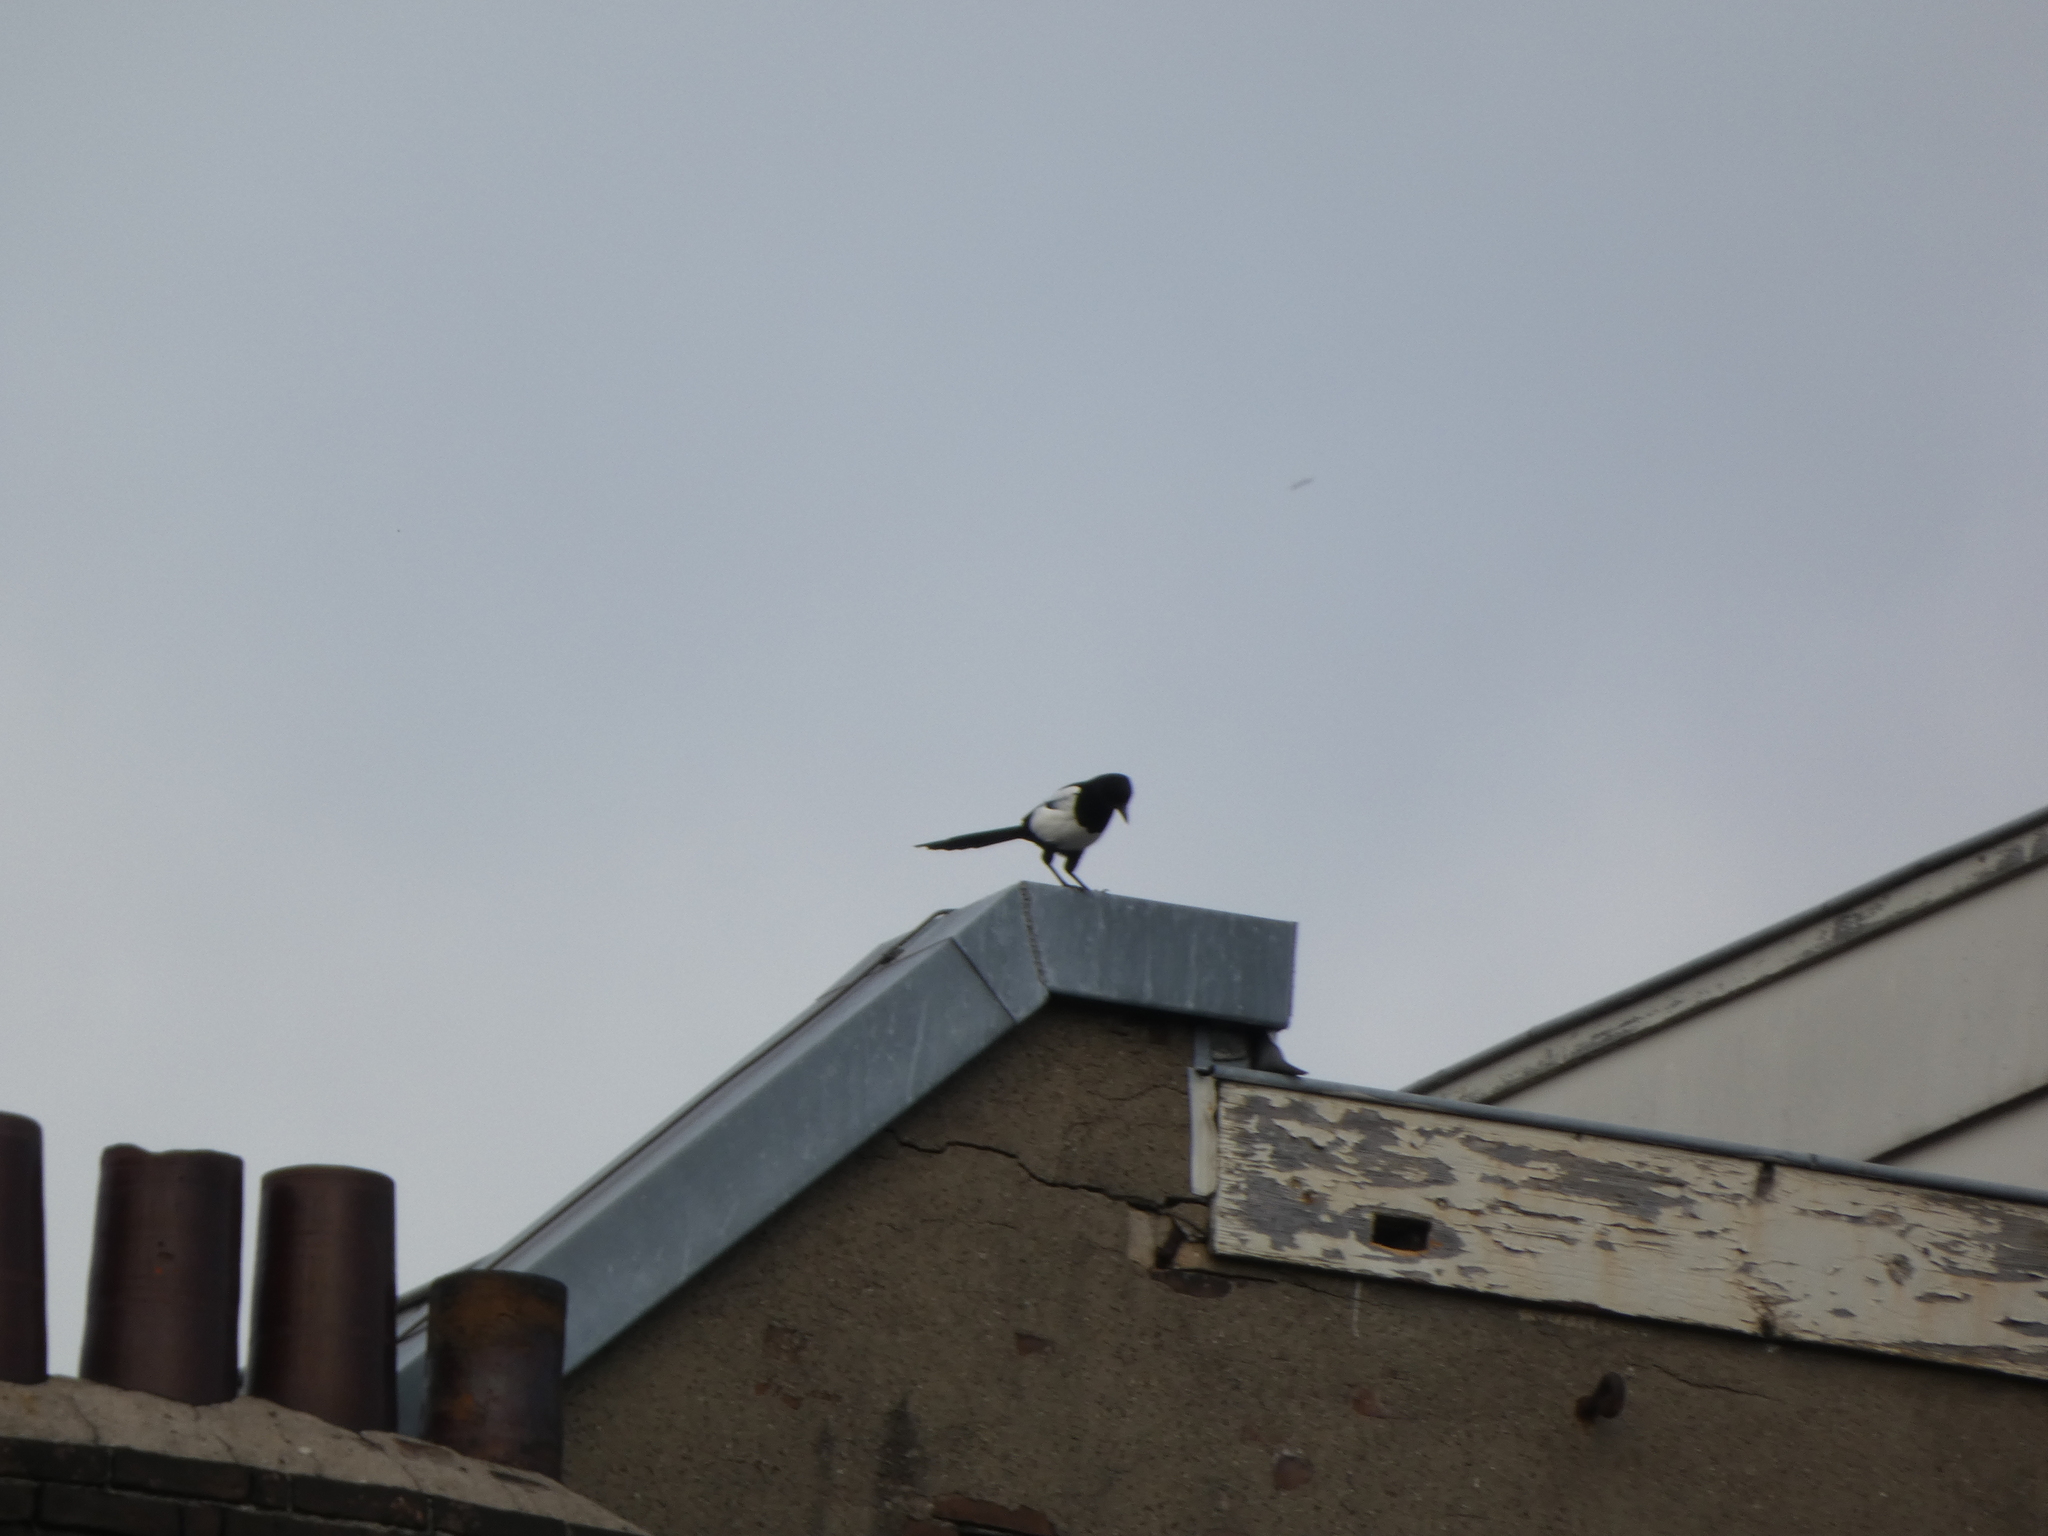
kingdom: Animalia
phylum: Chordata
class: Aves
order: Passeriformes
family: Corvidae
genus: Pica
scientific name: Pica pica
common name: Eurasian magpie
